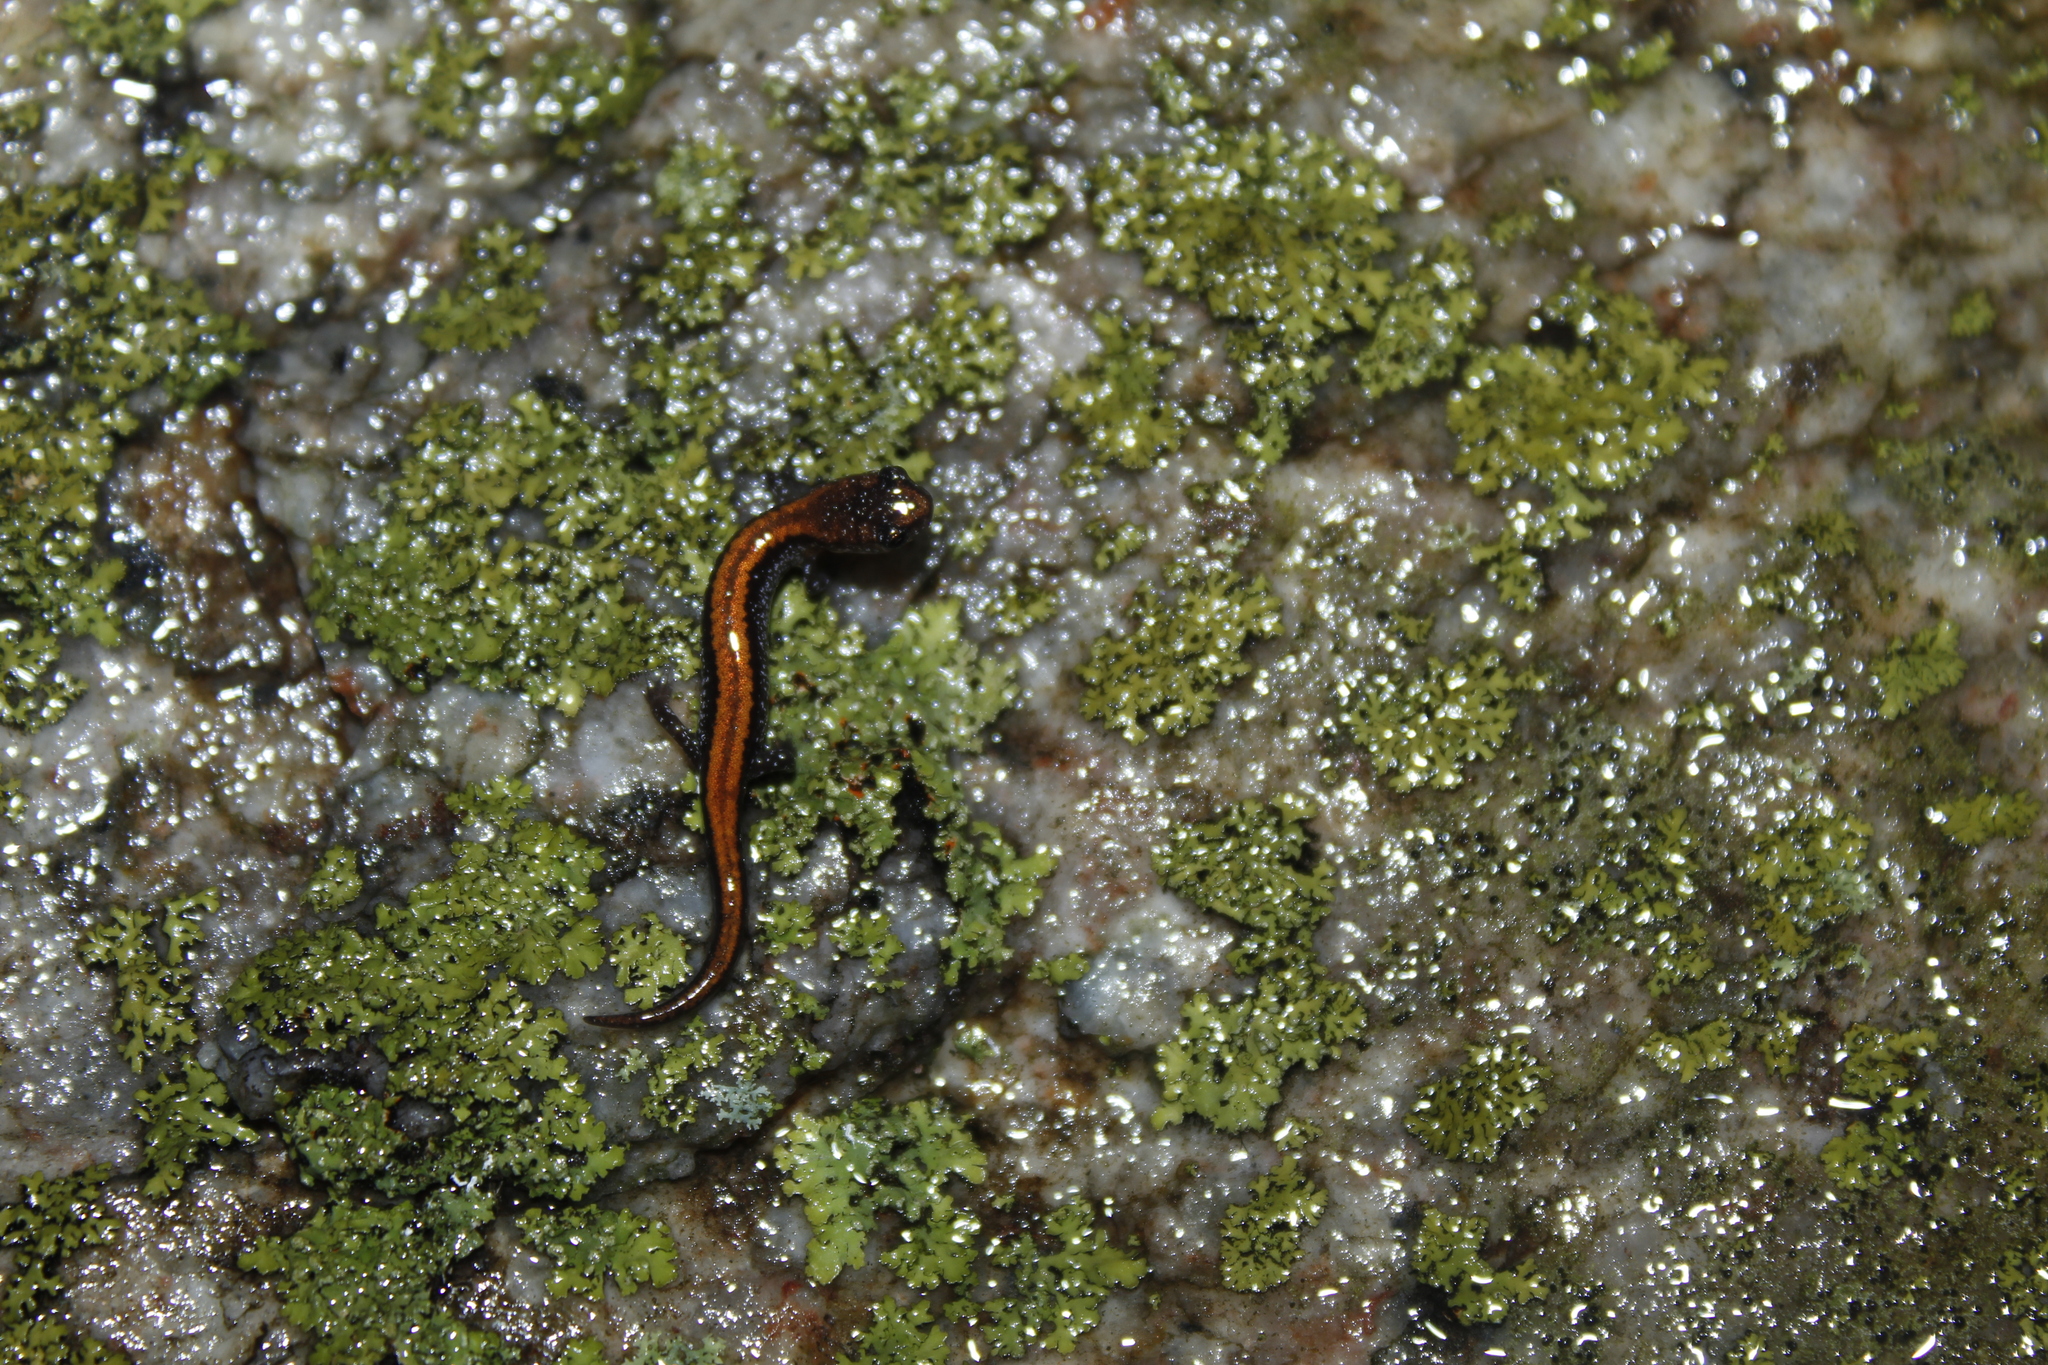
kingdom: Animalia
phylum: Chordata
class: Amphibia
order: Caudata
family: Plethodontidae
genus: Plethodon
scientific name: Plethodon cinereus
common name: Redback salamander
